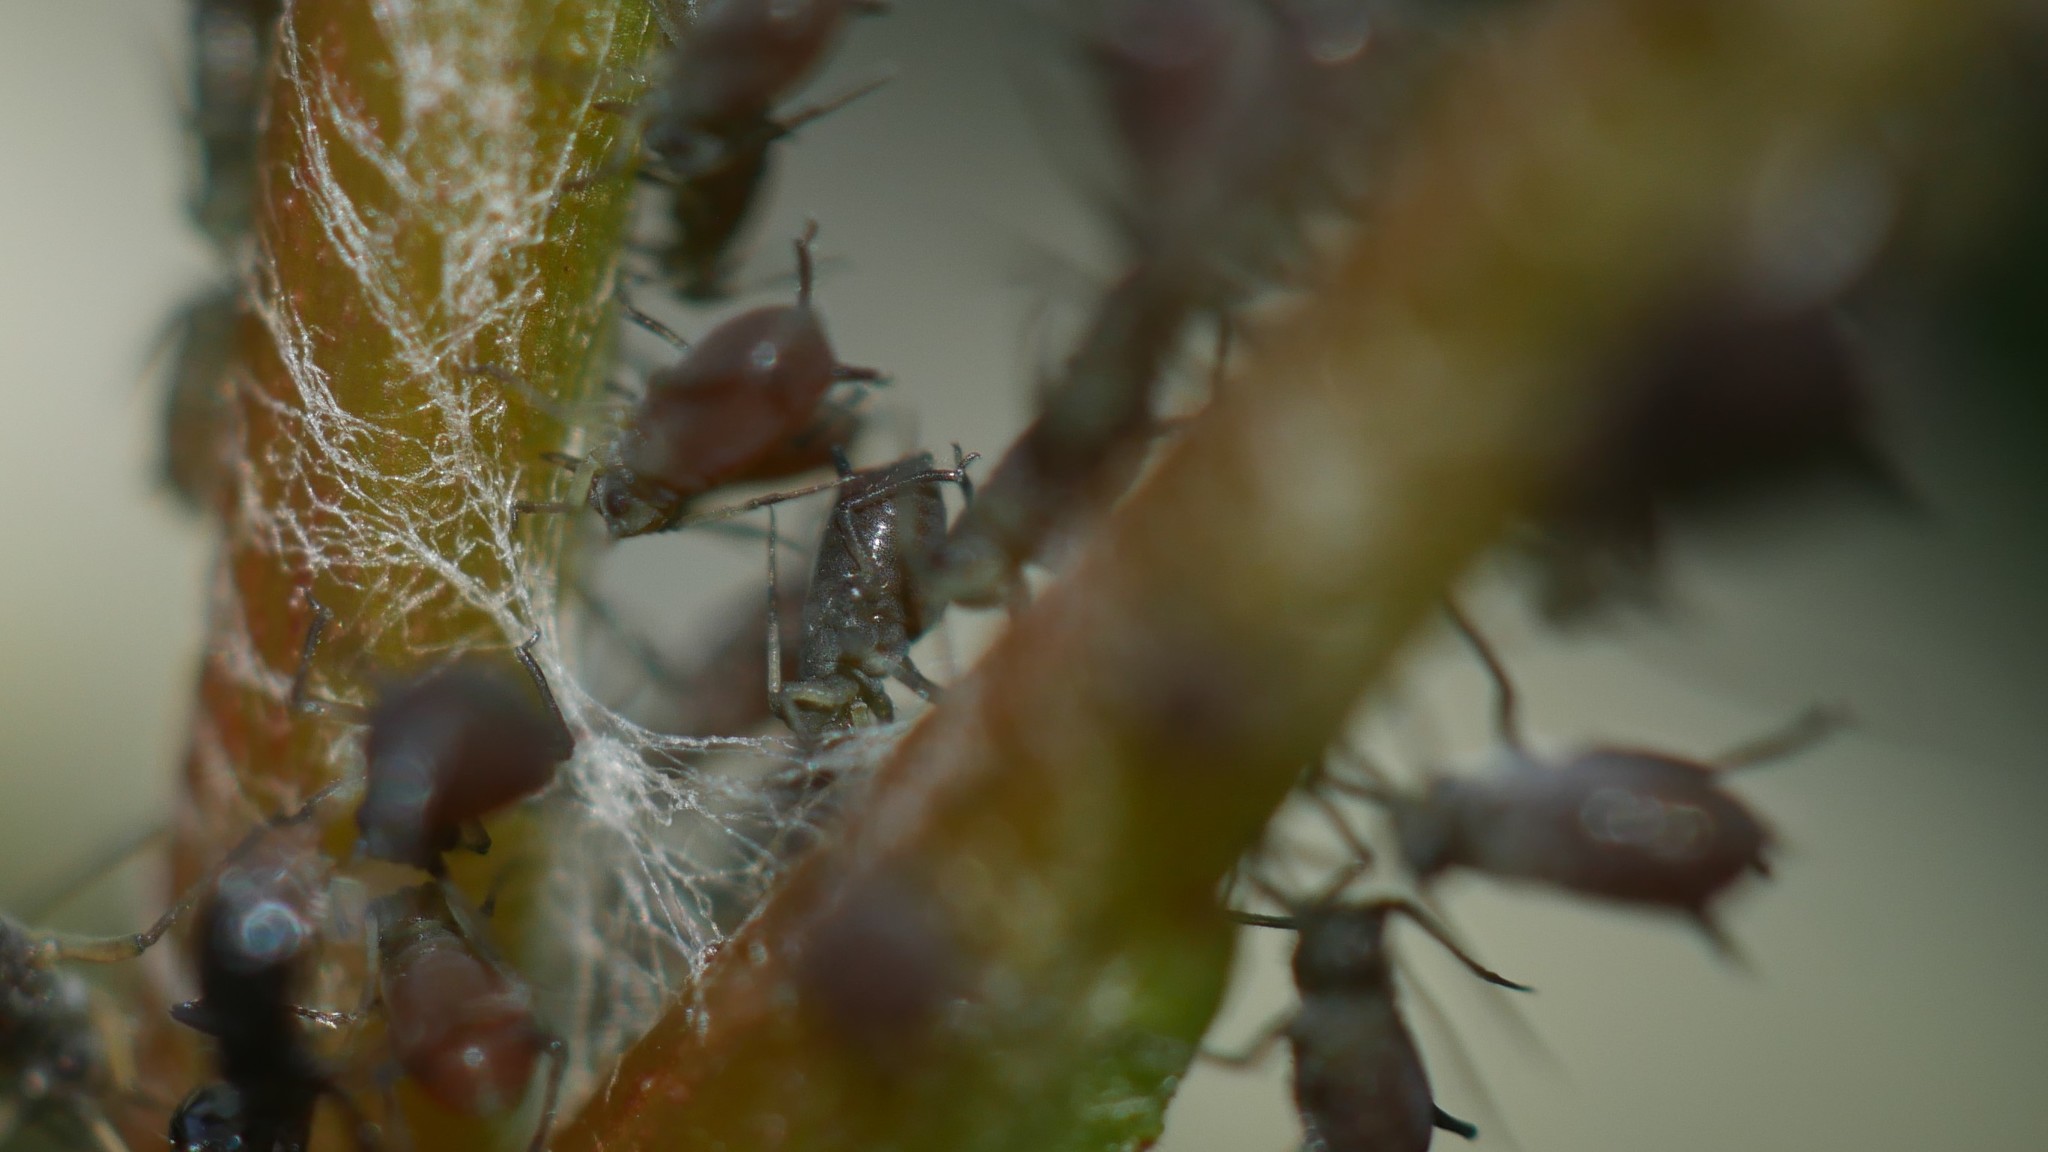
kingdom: Animalia
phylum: Arthropoda
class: Insecta
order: Hemiptera
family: Aphididae
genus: Aphis
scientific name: Aphis illinoisensis
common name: Grapevine aphid
